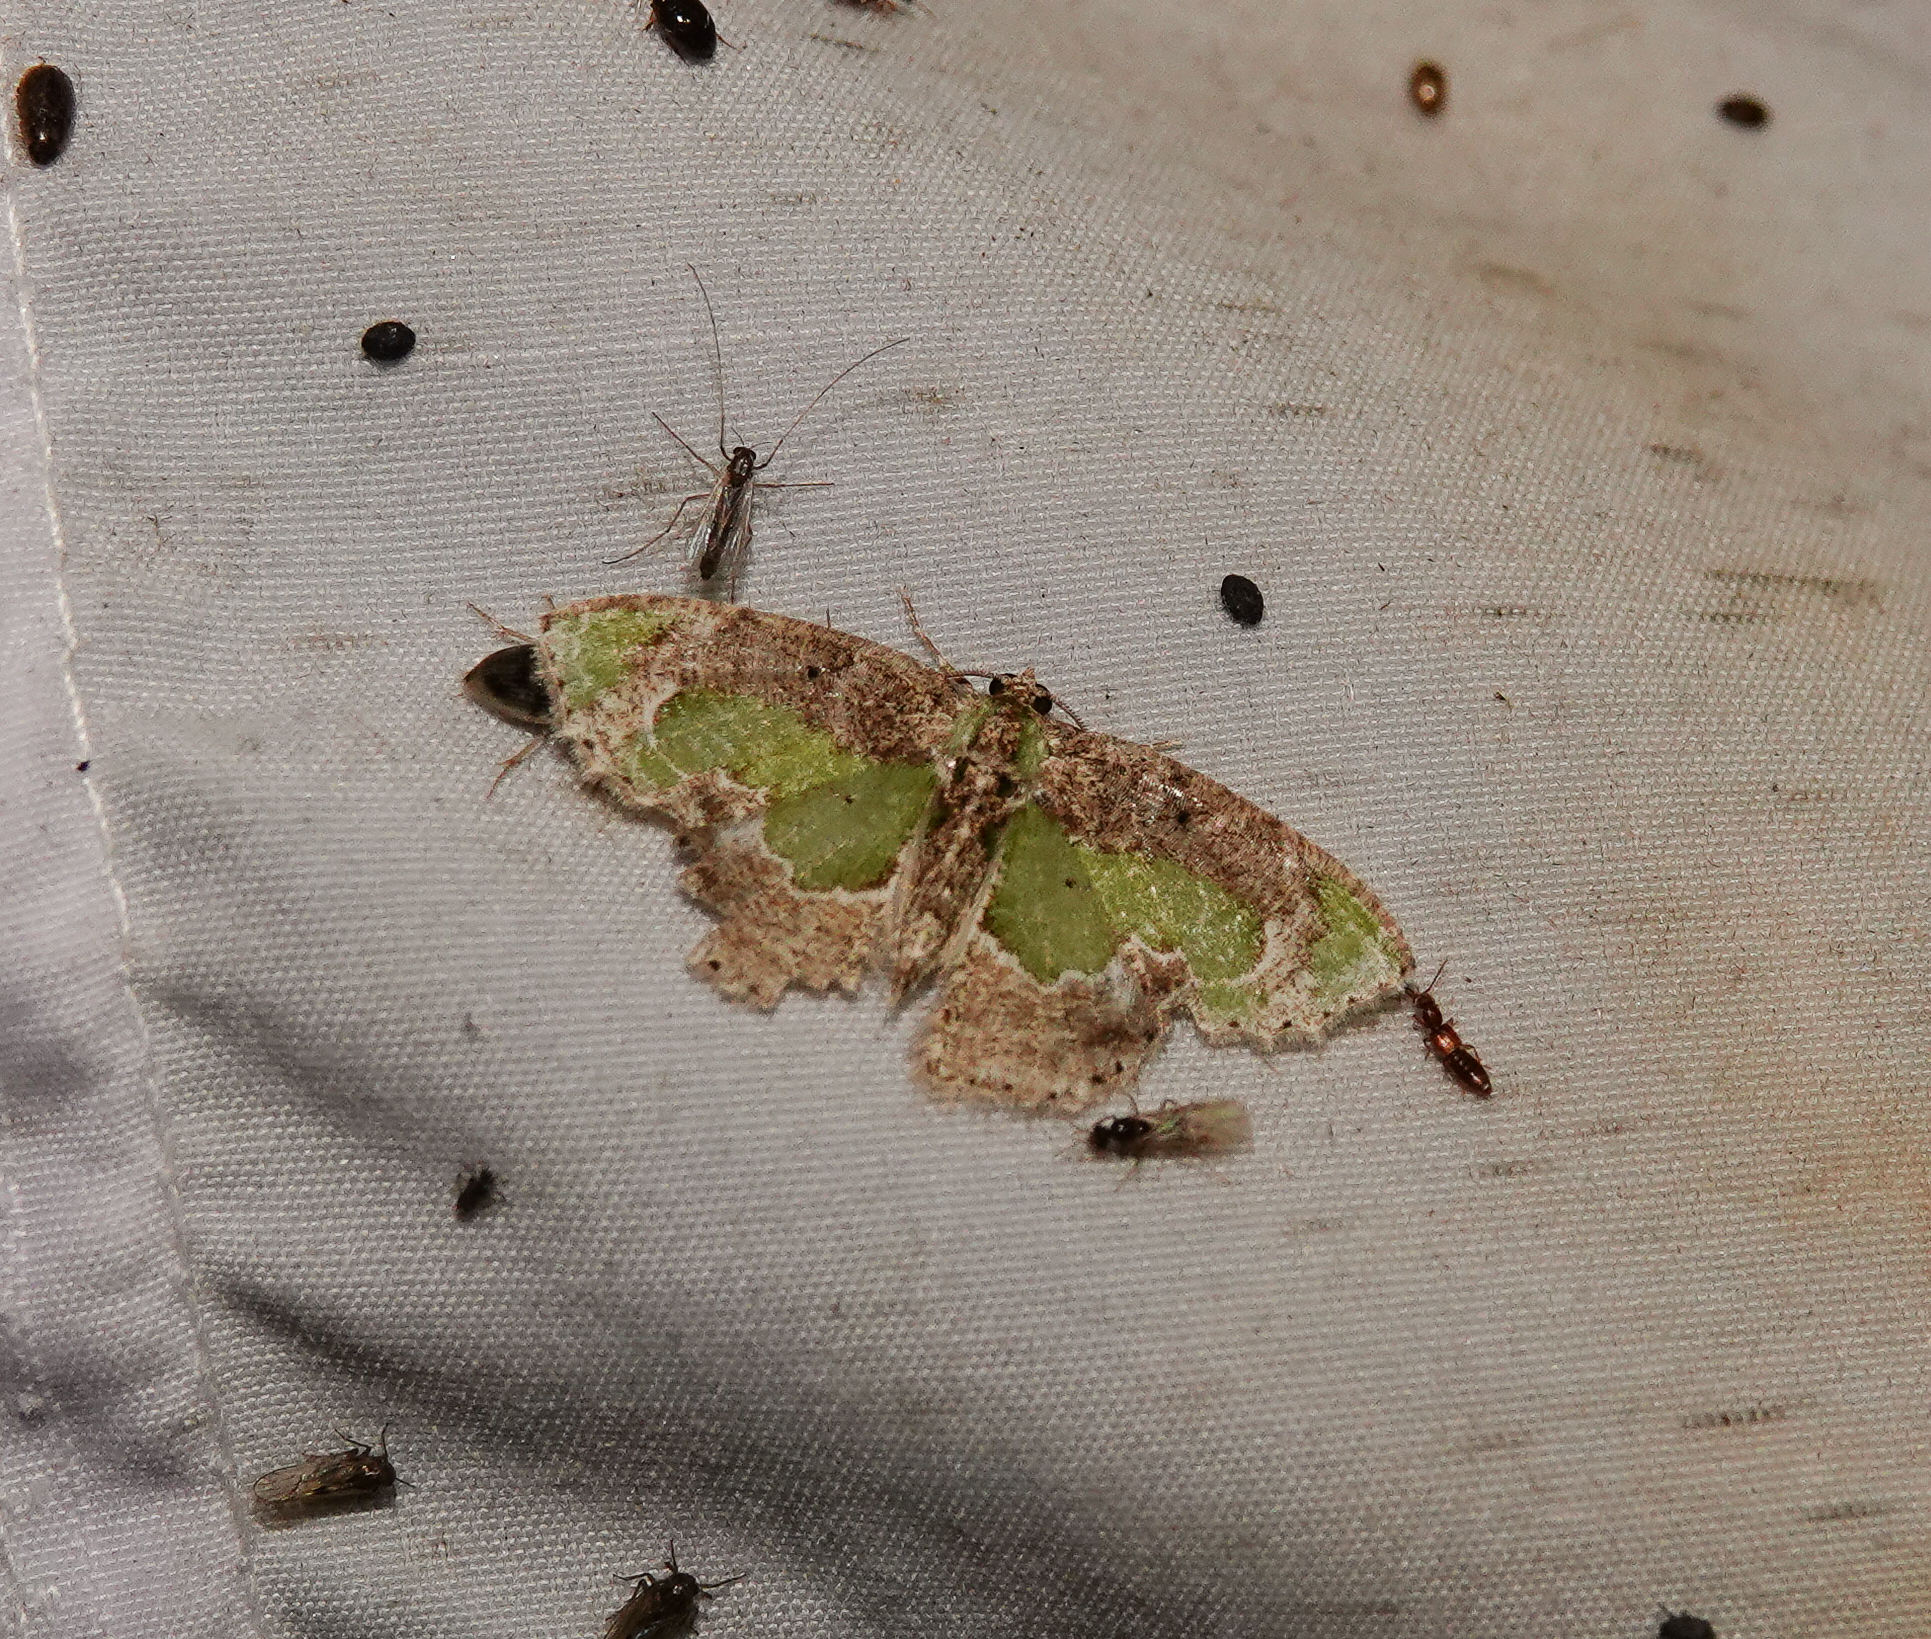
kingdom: Animalia
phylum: Arthropoda
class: Insecta
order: Lepidoptera
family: Geometridae
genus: Eucyclodes
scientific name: Eucyclodes discipennata
